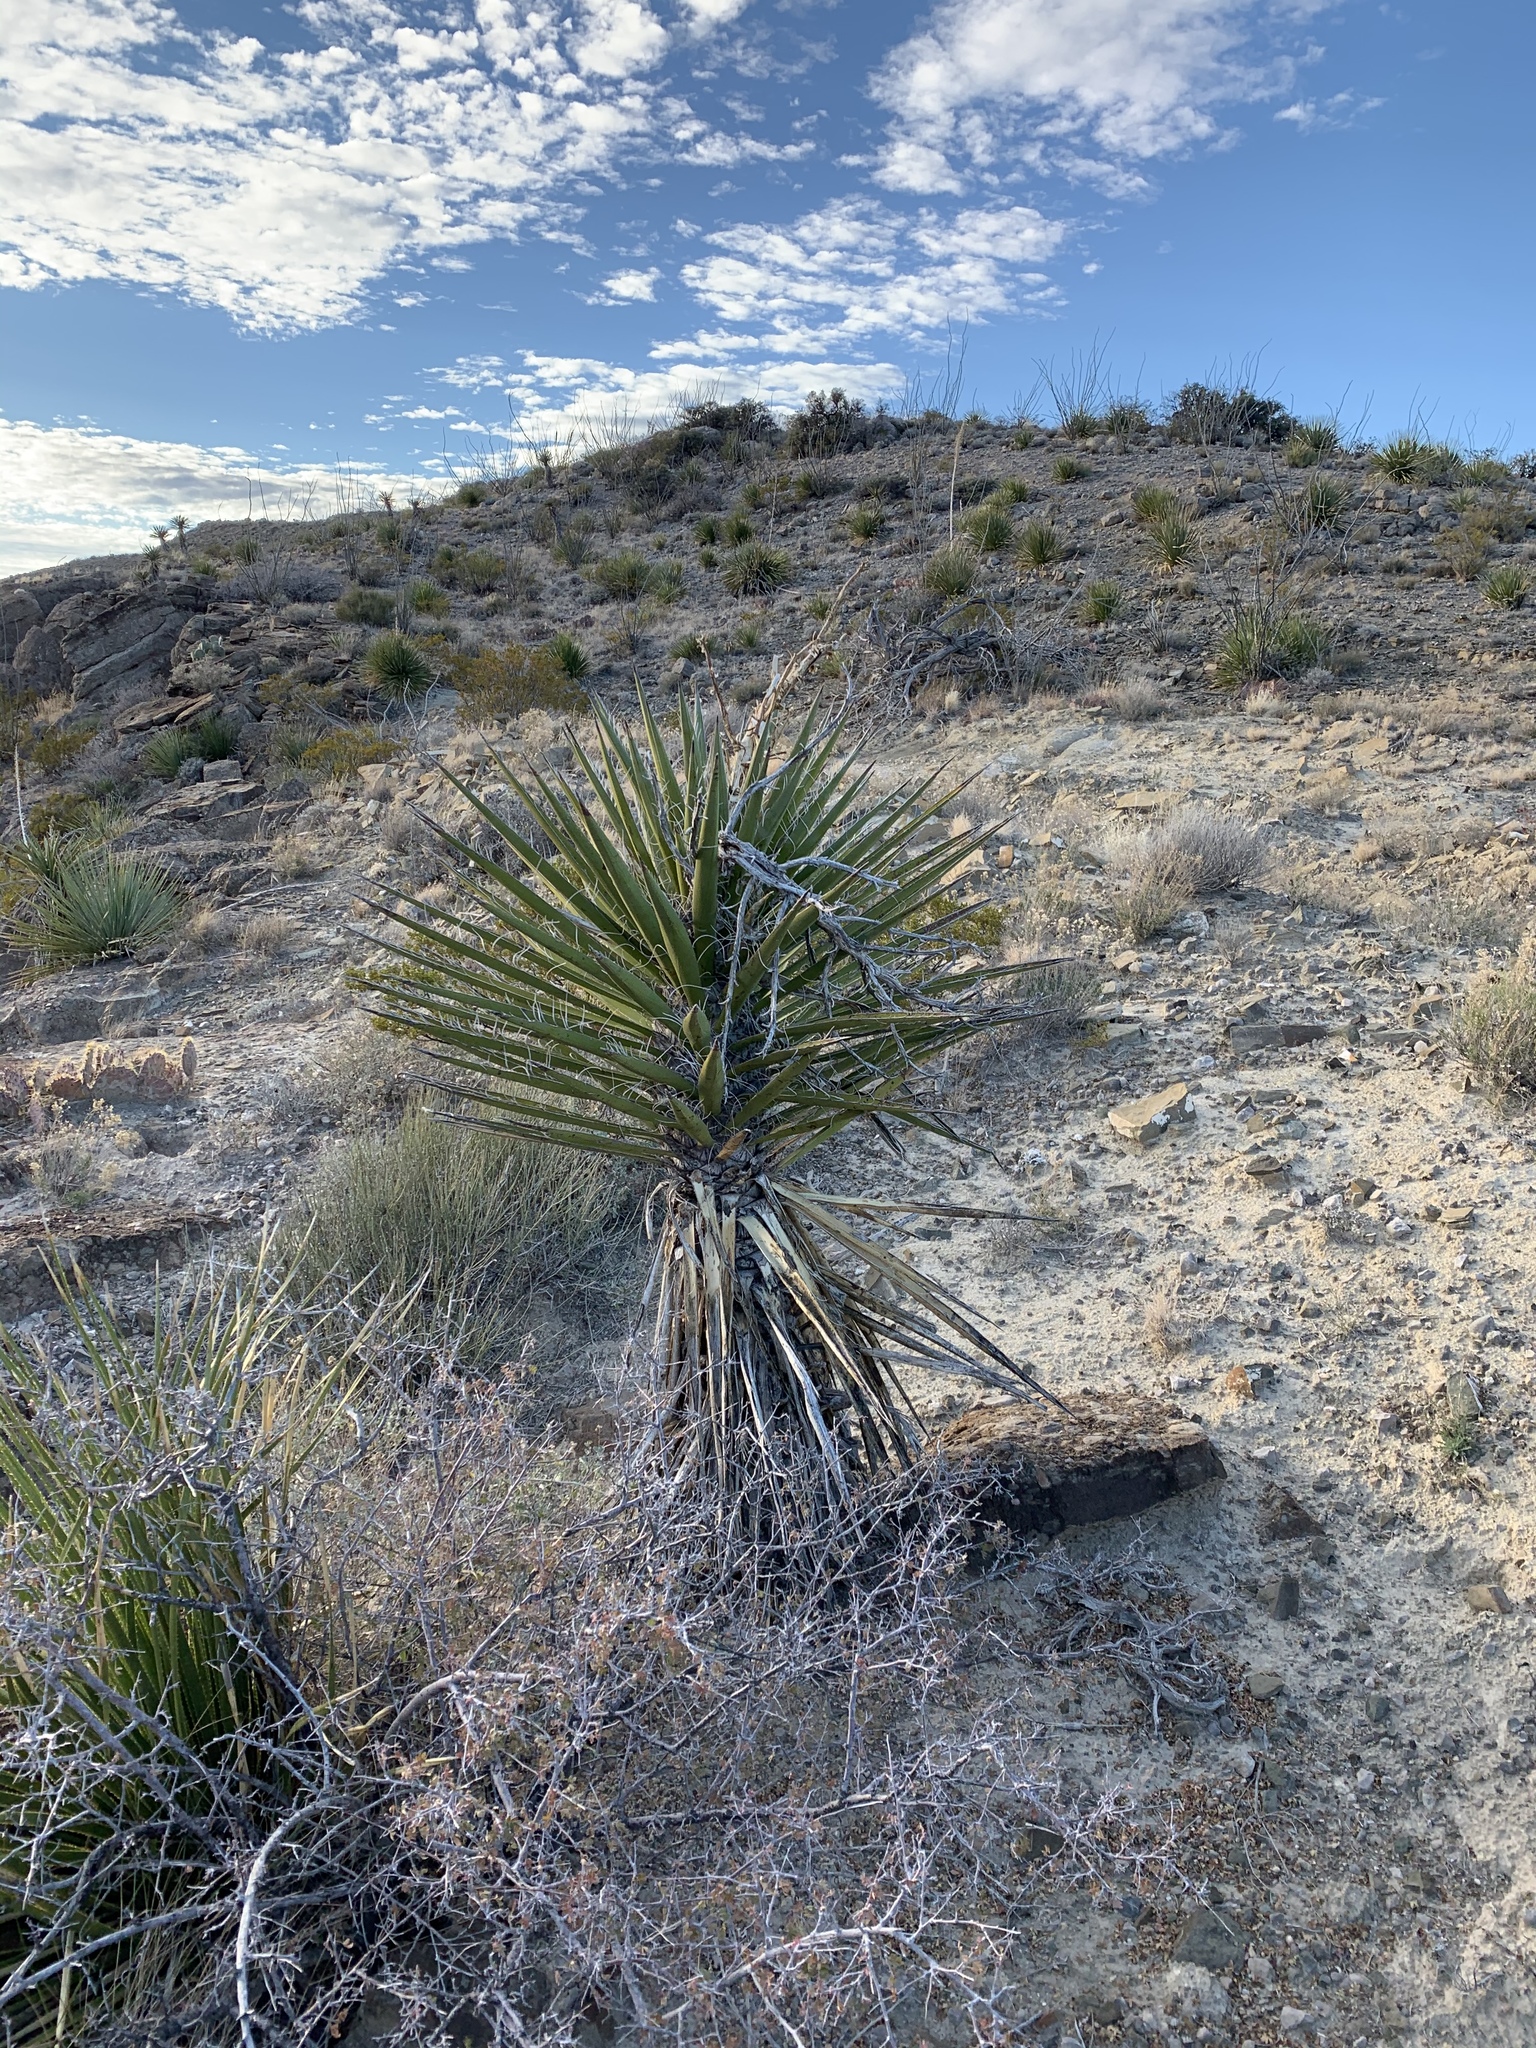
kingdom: Plantae
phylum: Tracheophyta
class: Liliopsida
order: Asparagales
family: Asparagaceae
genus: Yucca
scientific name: Yucca treculiana
